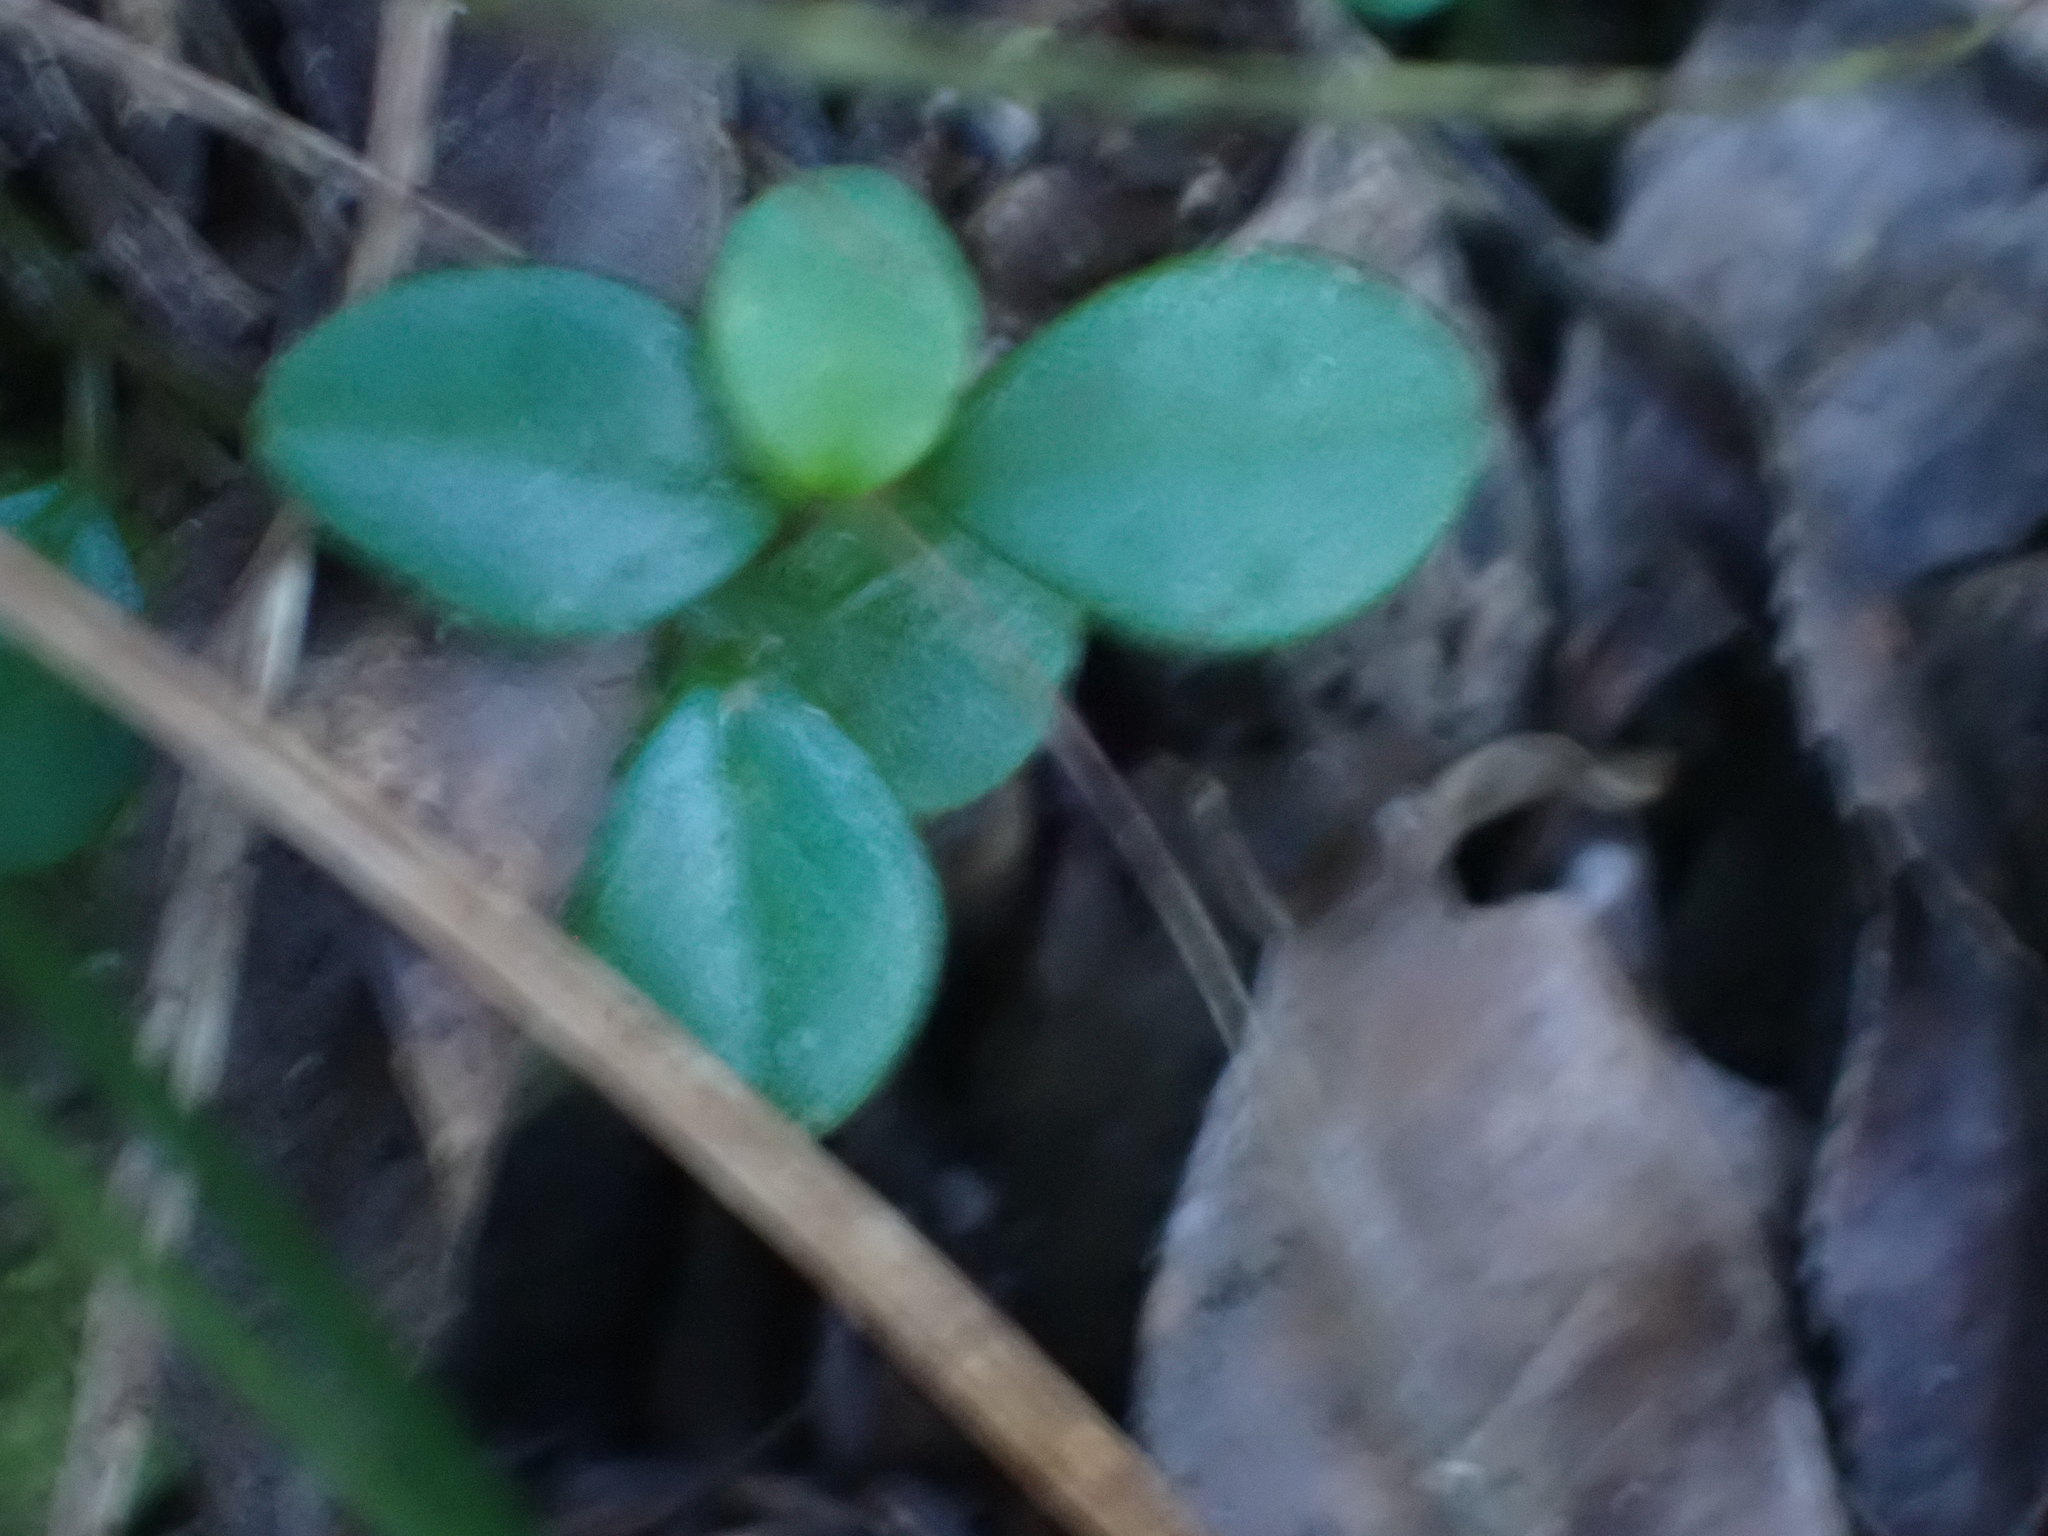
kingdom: Plantae
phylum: Tracheophyta
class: Magnoliopsida
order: Piperales
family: Piperaceae
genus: Peperomia
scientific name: Peperomia retusa
